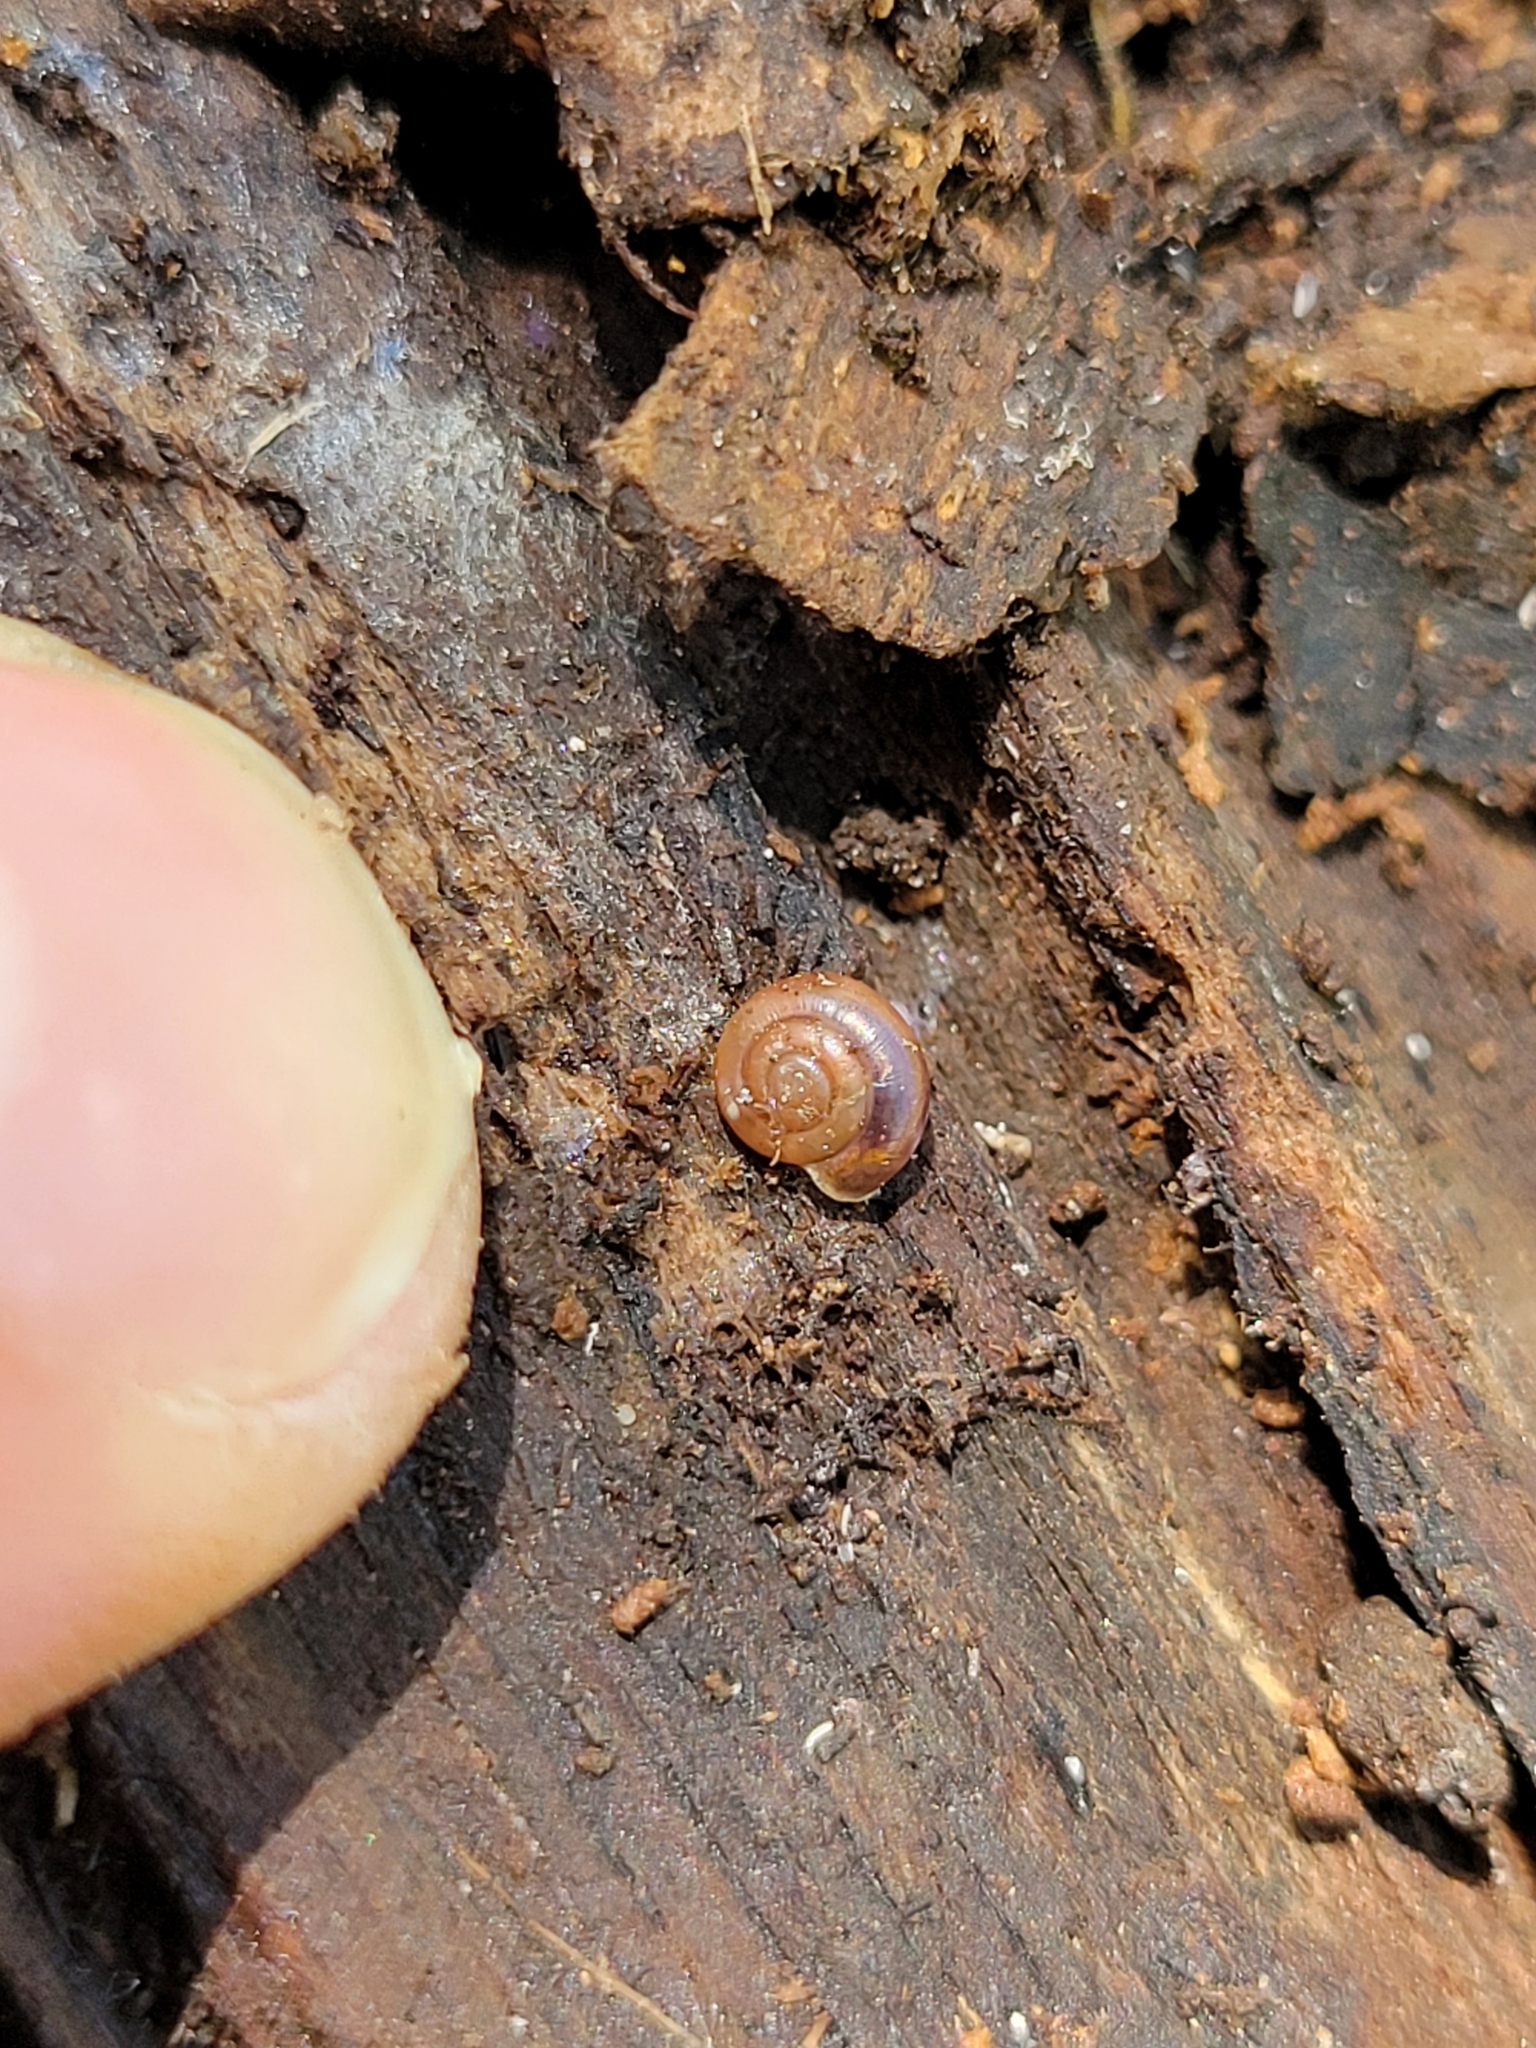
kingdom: Animalia
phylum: Mollusca
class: Gastropoda
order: Stylommatophora
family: Gastrodontidae
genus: Zonitoides
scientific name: Zonitoides arboreus
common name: Quick gloss
